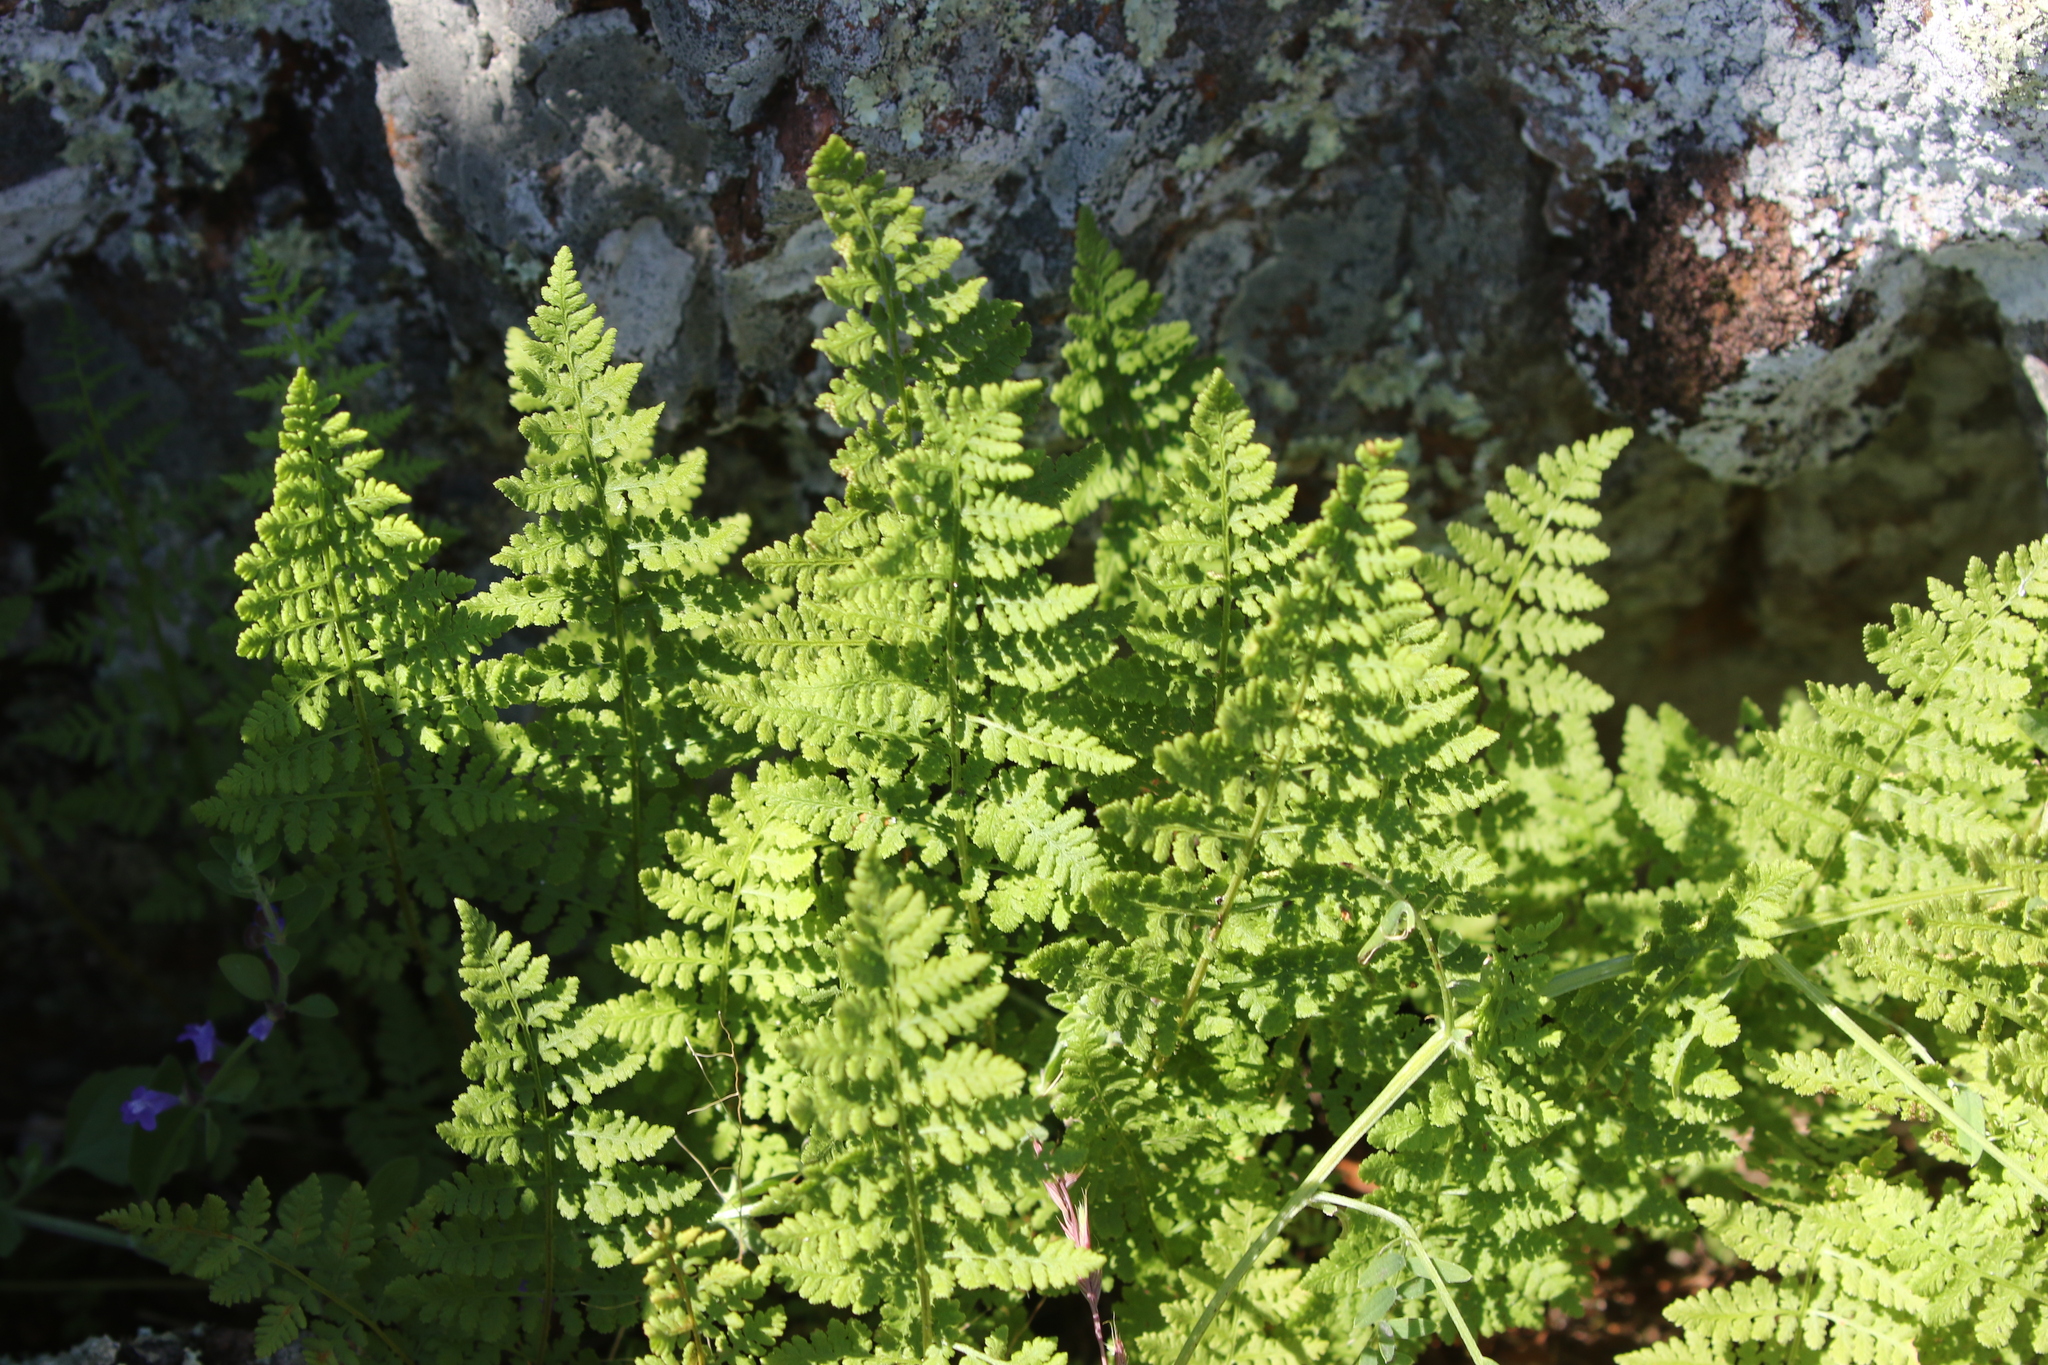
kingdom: Plantae
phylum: Tracheophyta
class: Polypodiopsida
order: Polypodiales
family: Woodsiaceae
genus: Physematium
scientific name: Physematium obtusum
